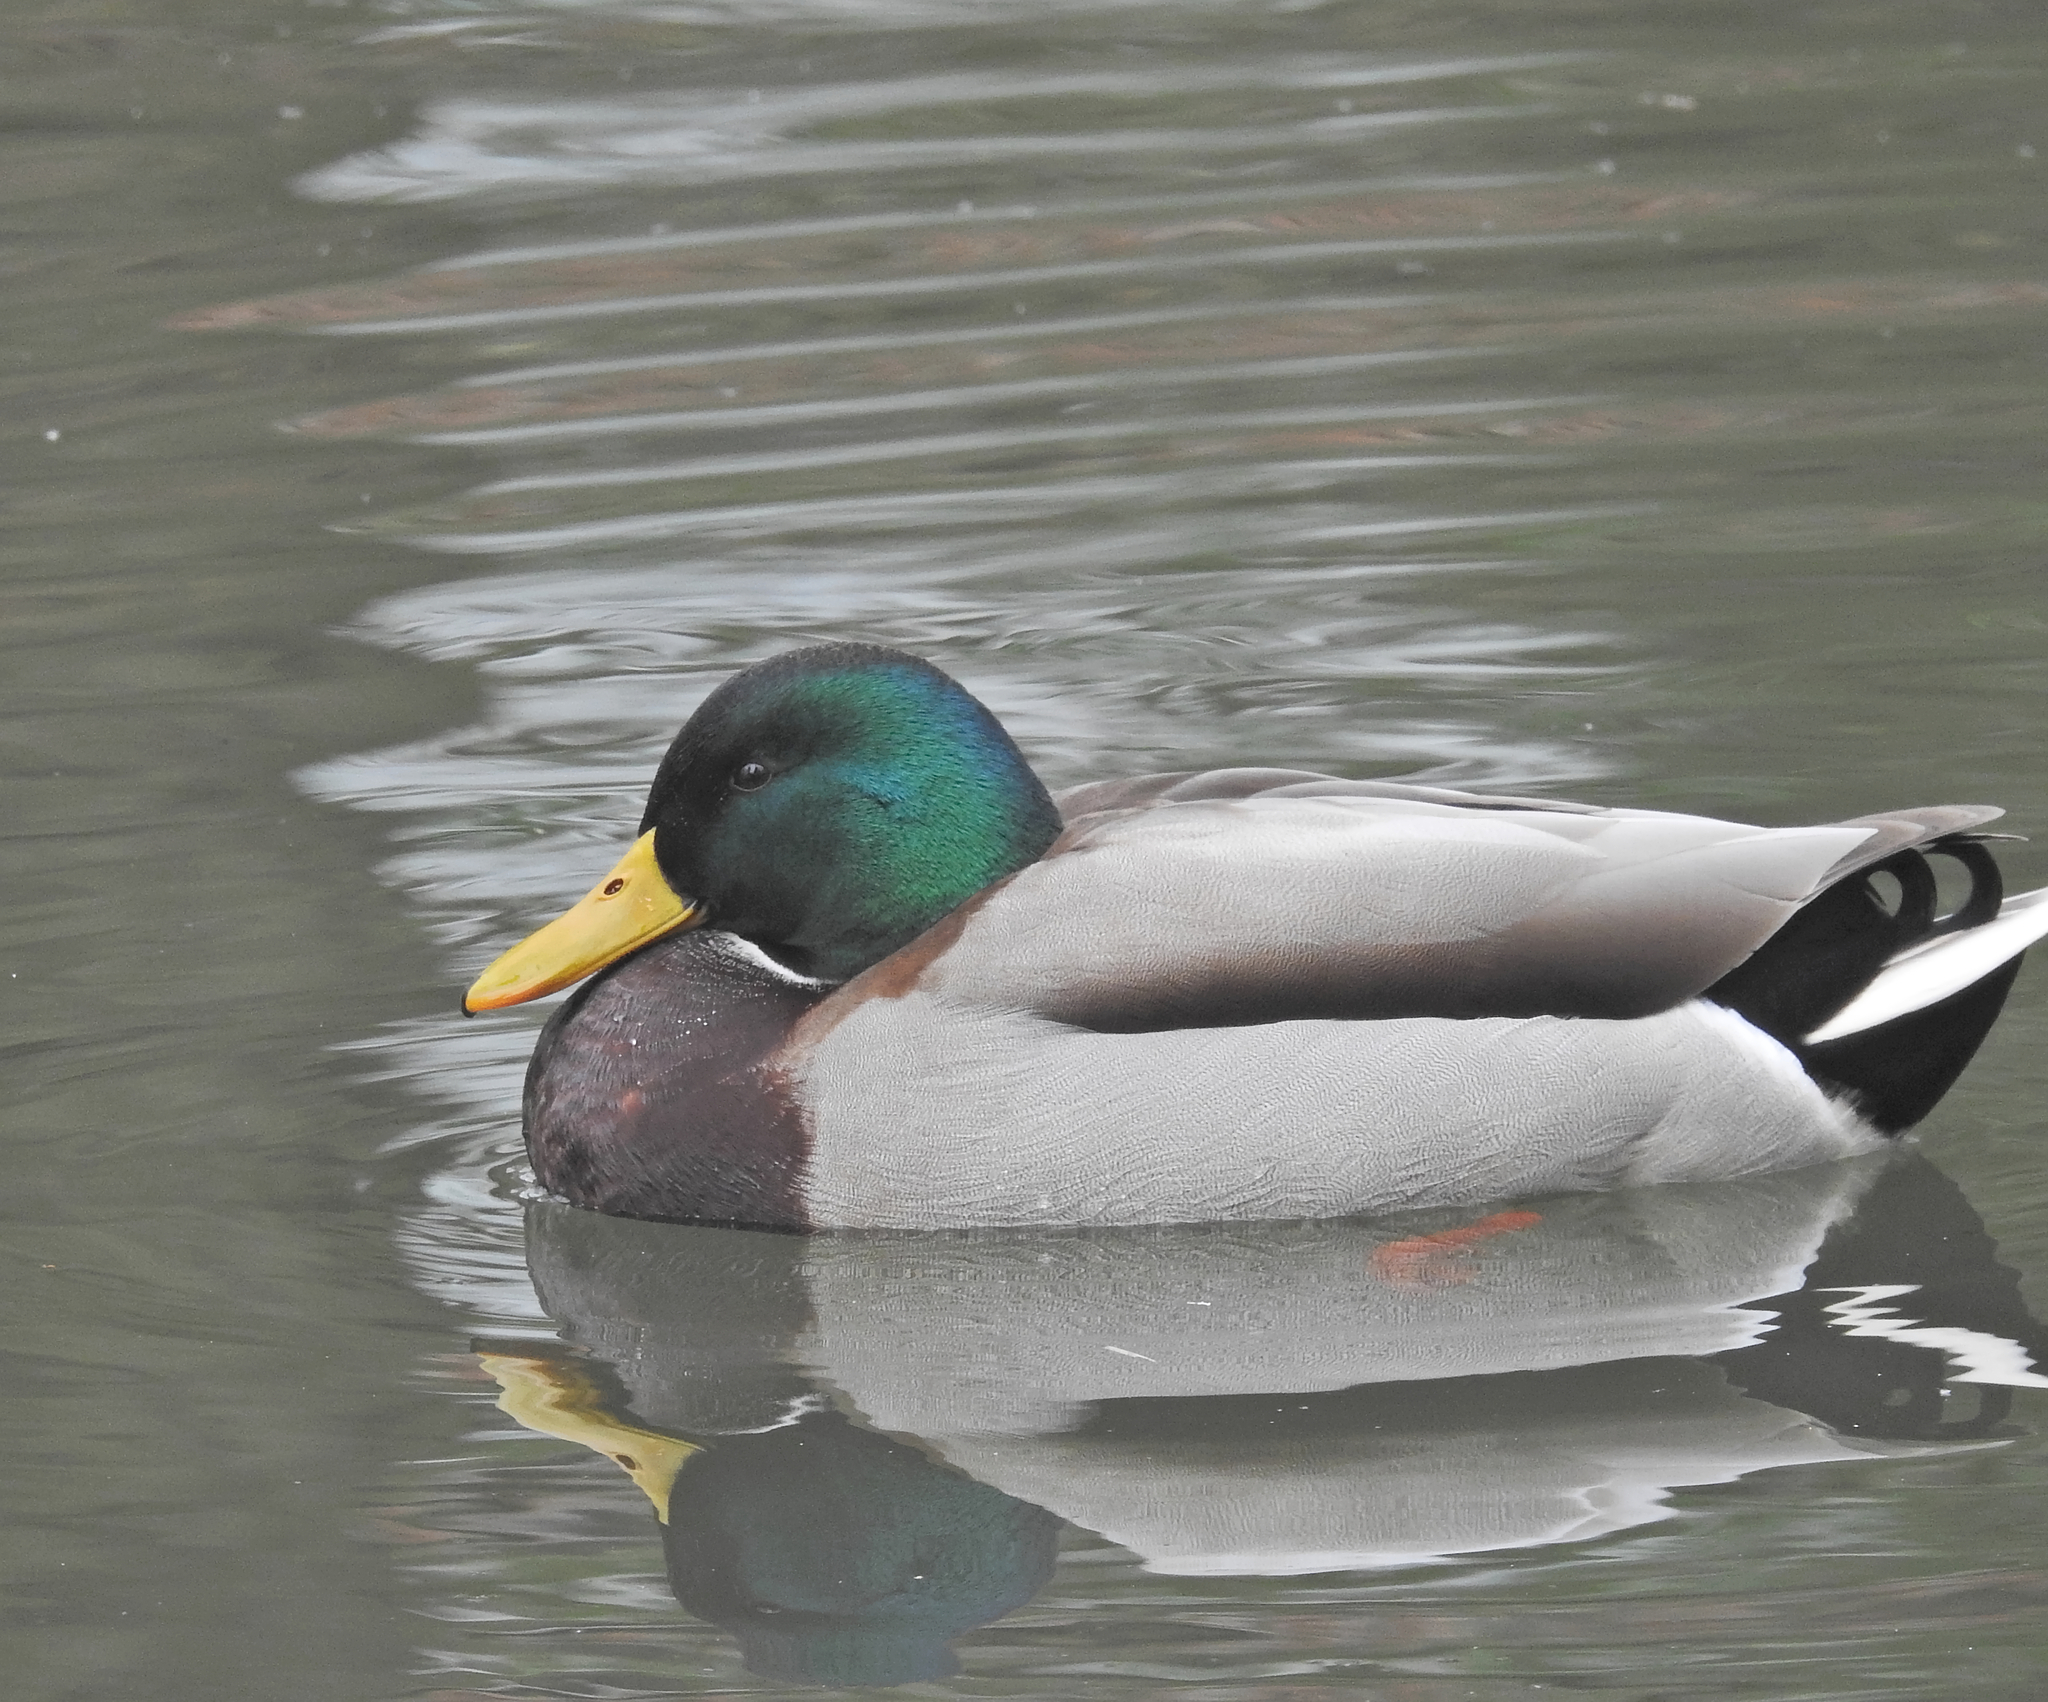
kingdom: Animalia
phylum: Chordata
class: Aves
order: Anseriformes
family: Anatidae
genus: Anas
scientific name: Anas platyrhynchos
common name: Mallard
